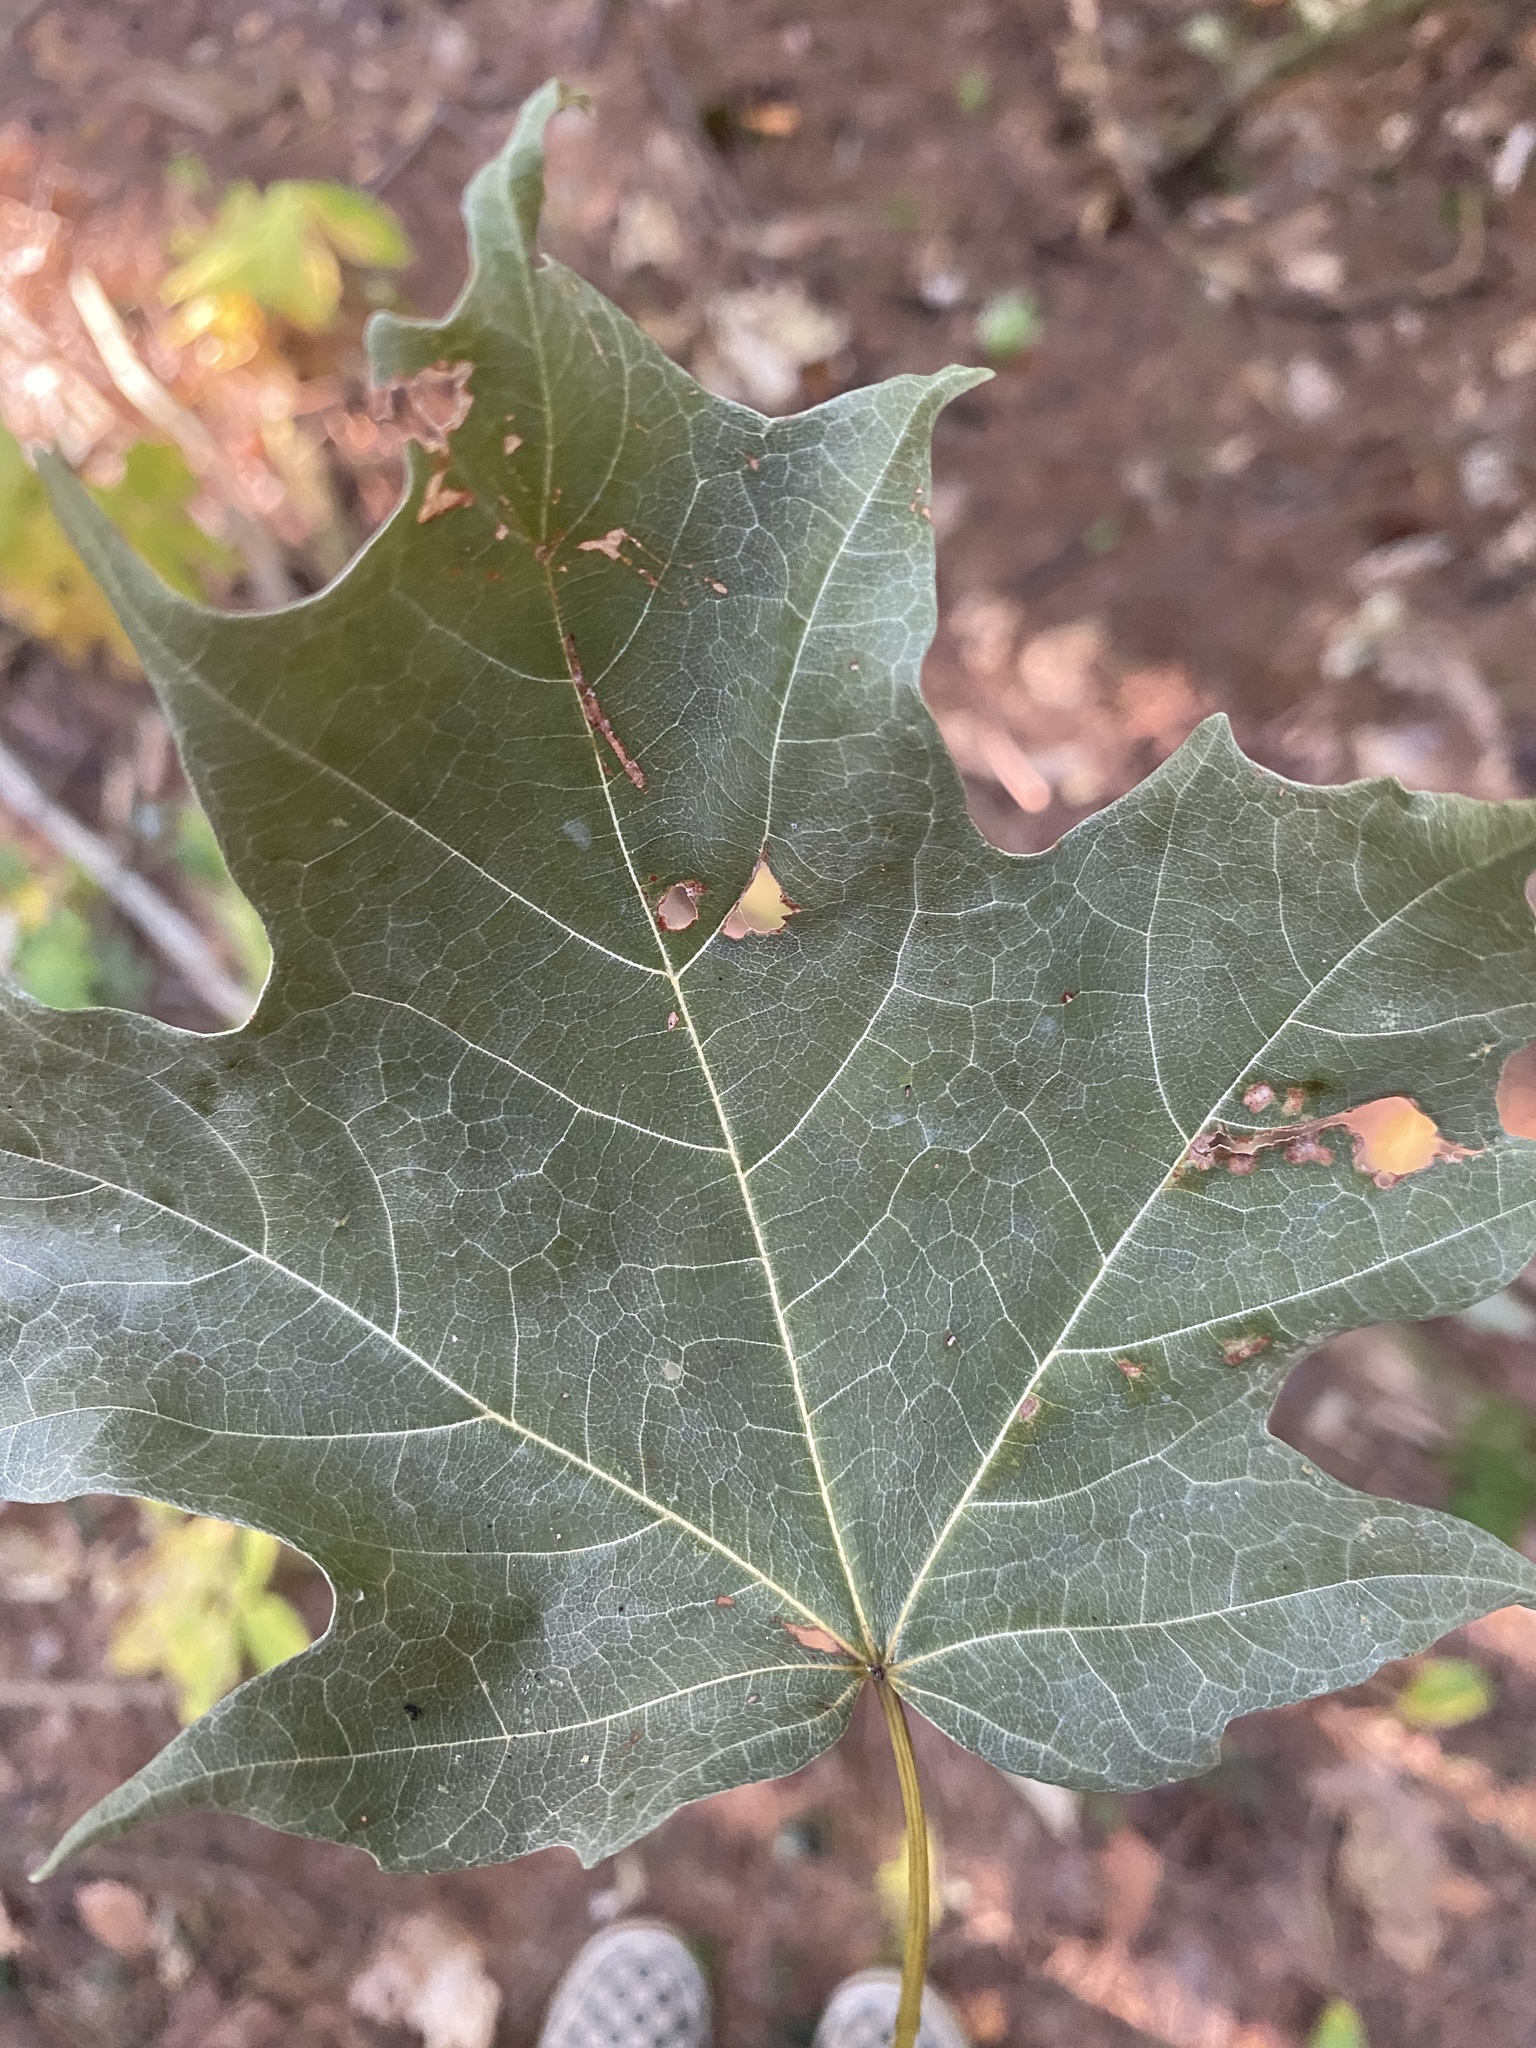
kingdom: Plantae
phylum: Tracheophyta
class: Magnoliopsida
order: Sapindales
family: Sapindaceae
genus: Acer
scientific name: Acer platanoides
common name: Norway maple
